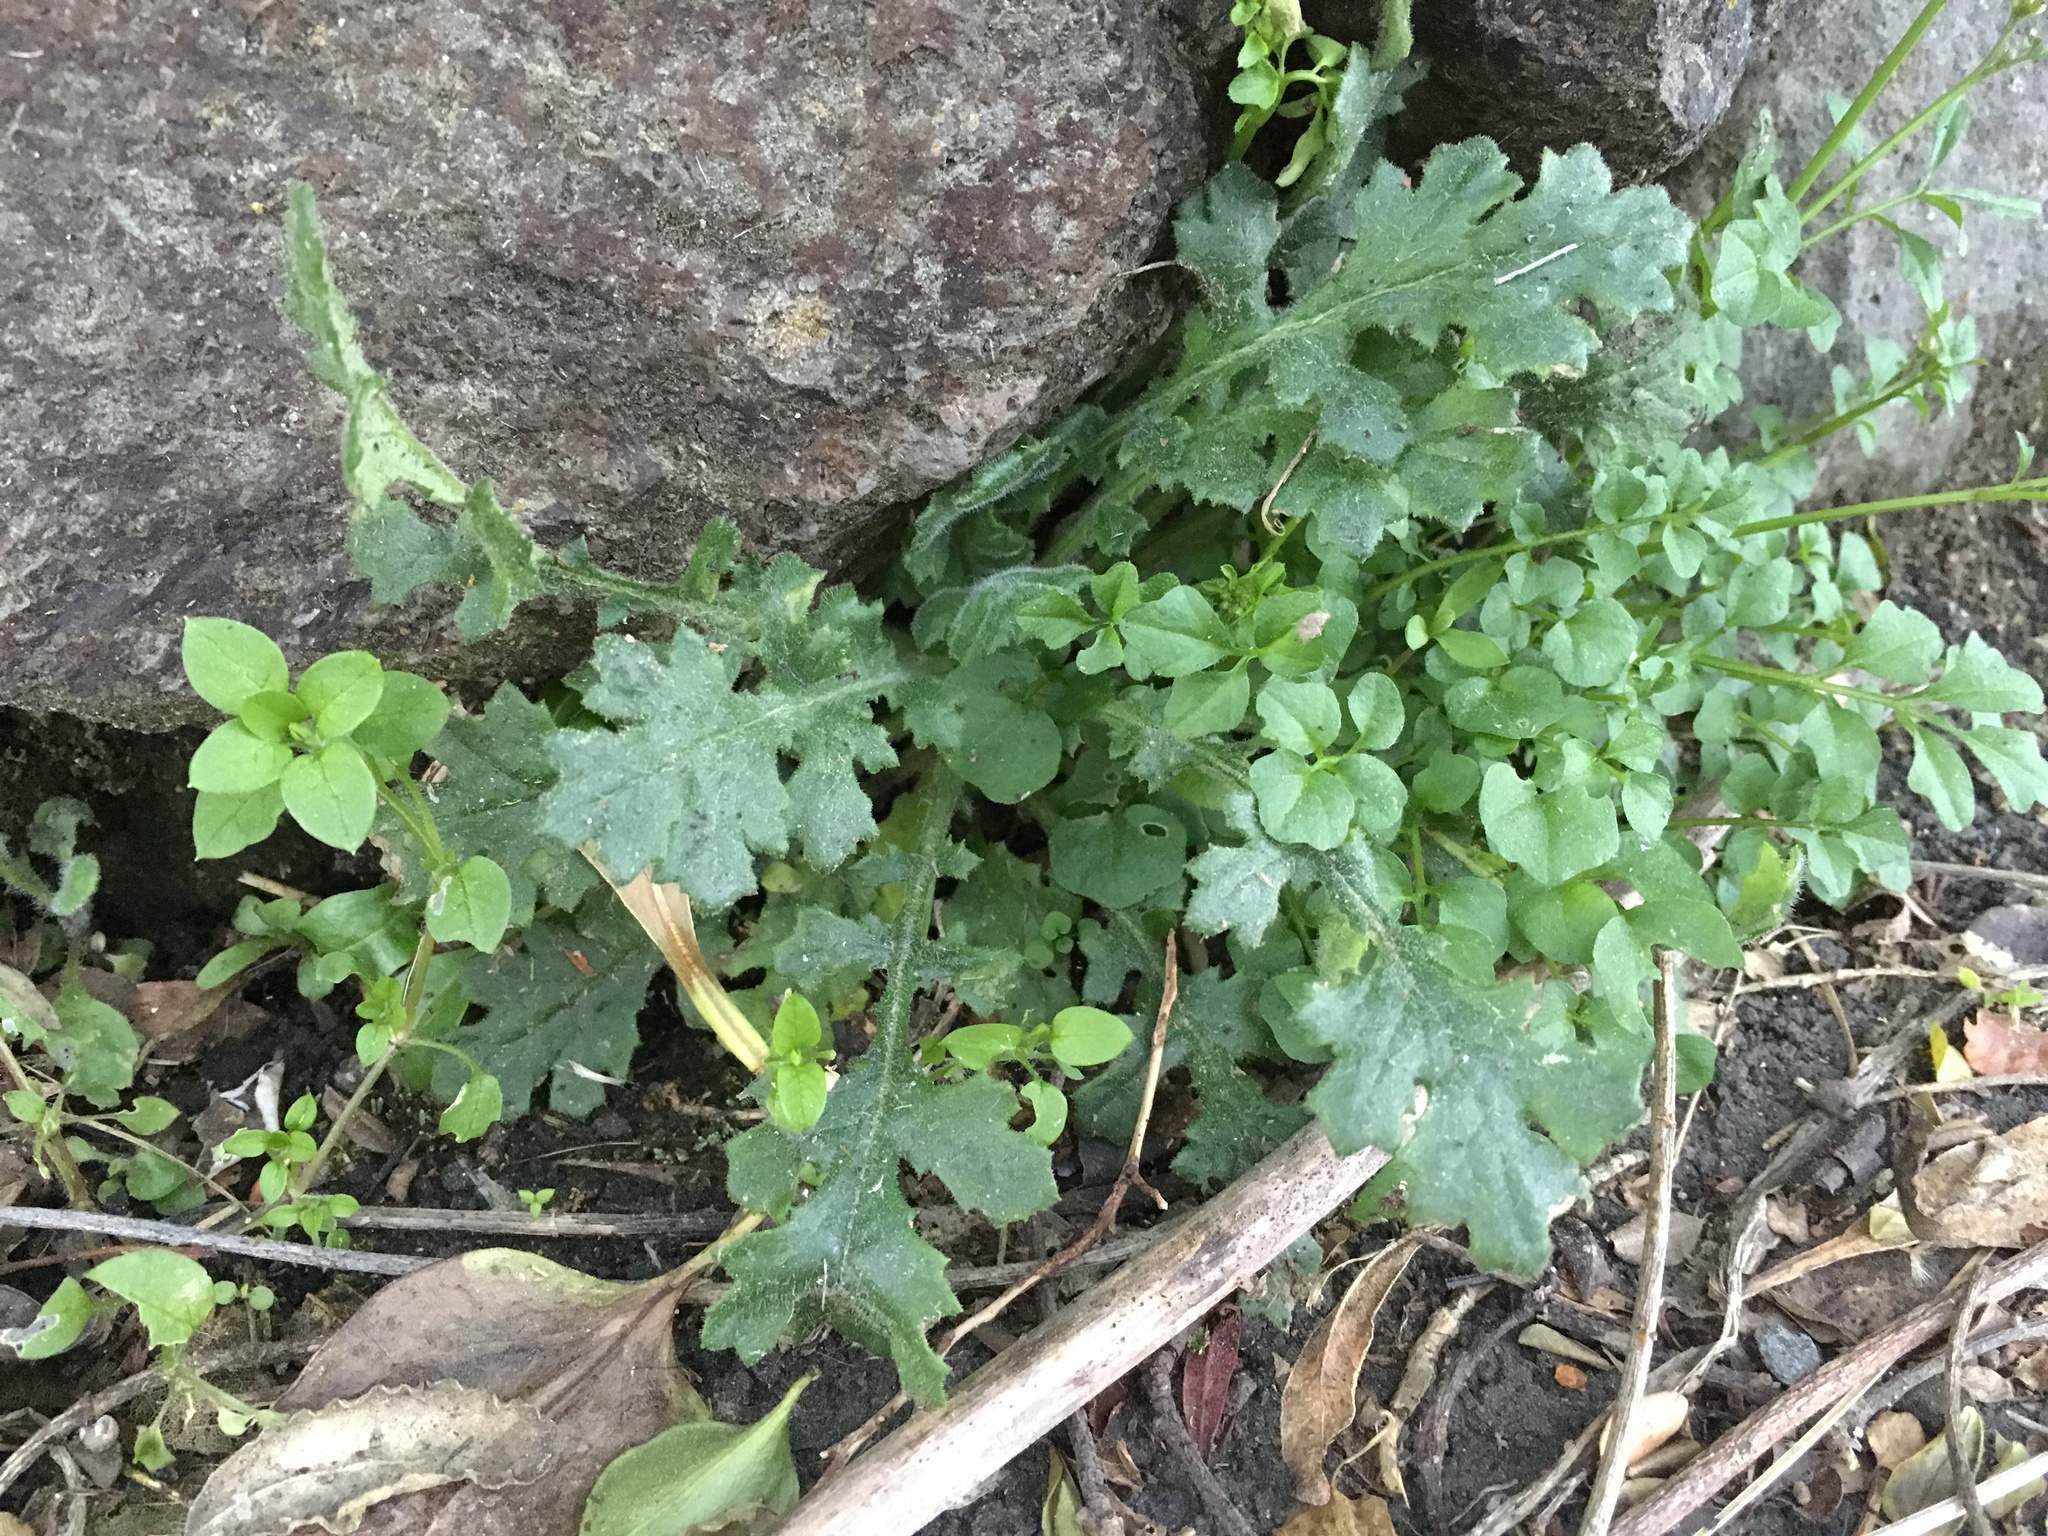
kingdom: Plantae
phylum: Tracheophyta
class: Magnoliopsida
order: Asterales
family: Asteraceae
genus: Senecio
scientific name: Senecio sylvaticus
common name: Woodland ragwort
